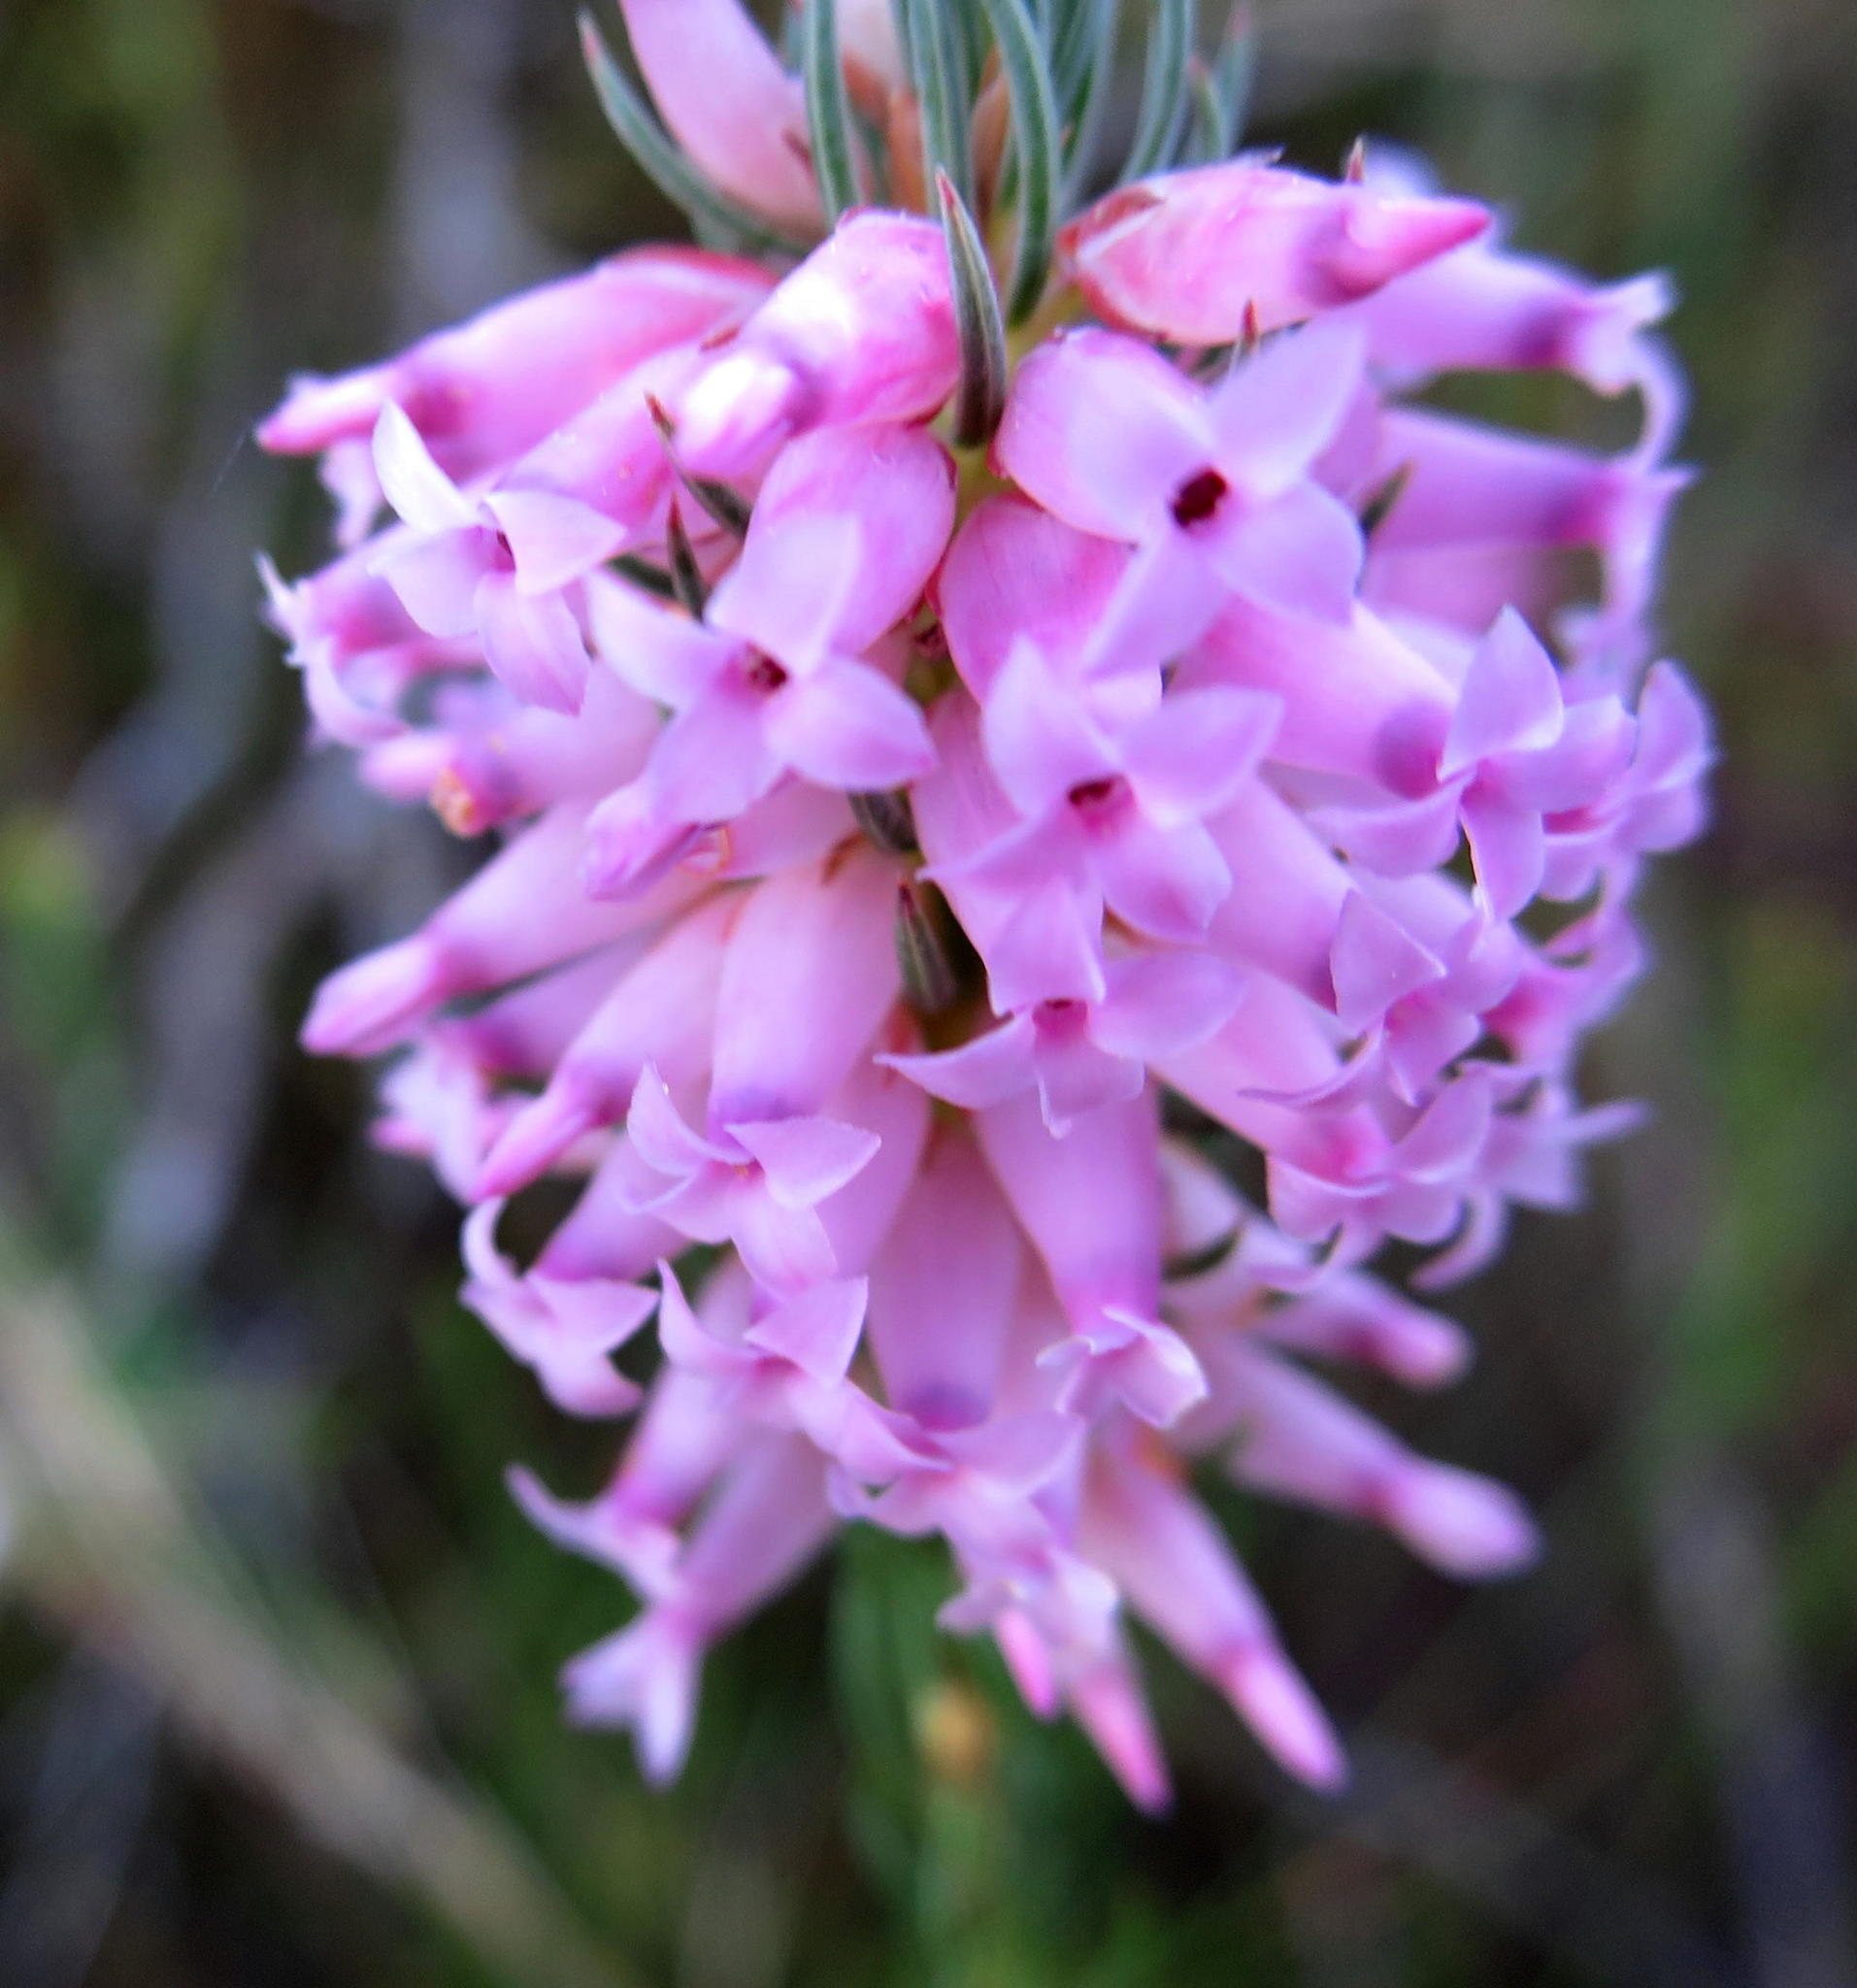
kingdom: Plantae
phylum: Tracheophyta
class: Magnoliopsida
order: Ericales
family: Ericaceae
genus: Erica
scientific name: Erica georgica
